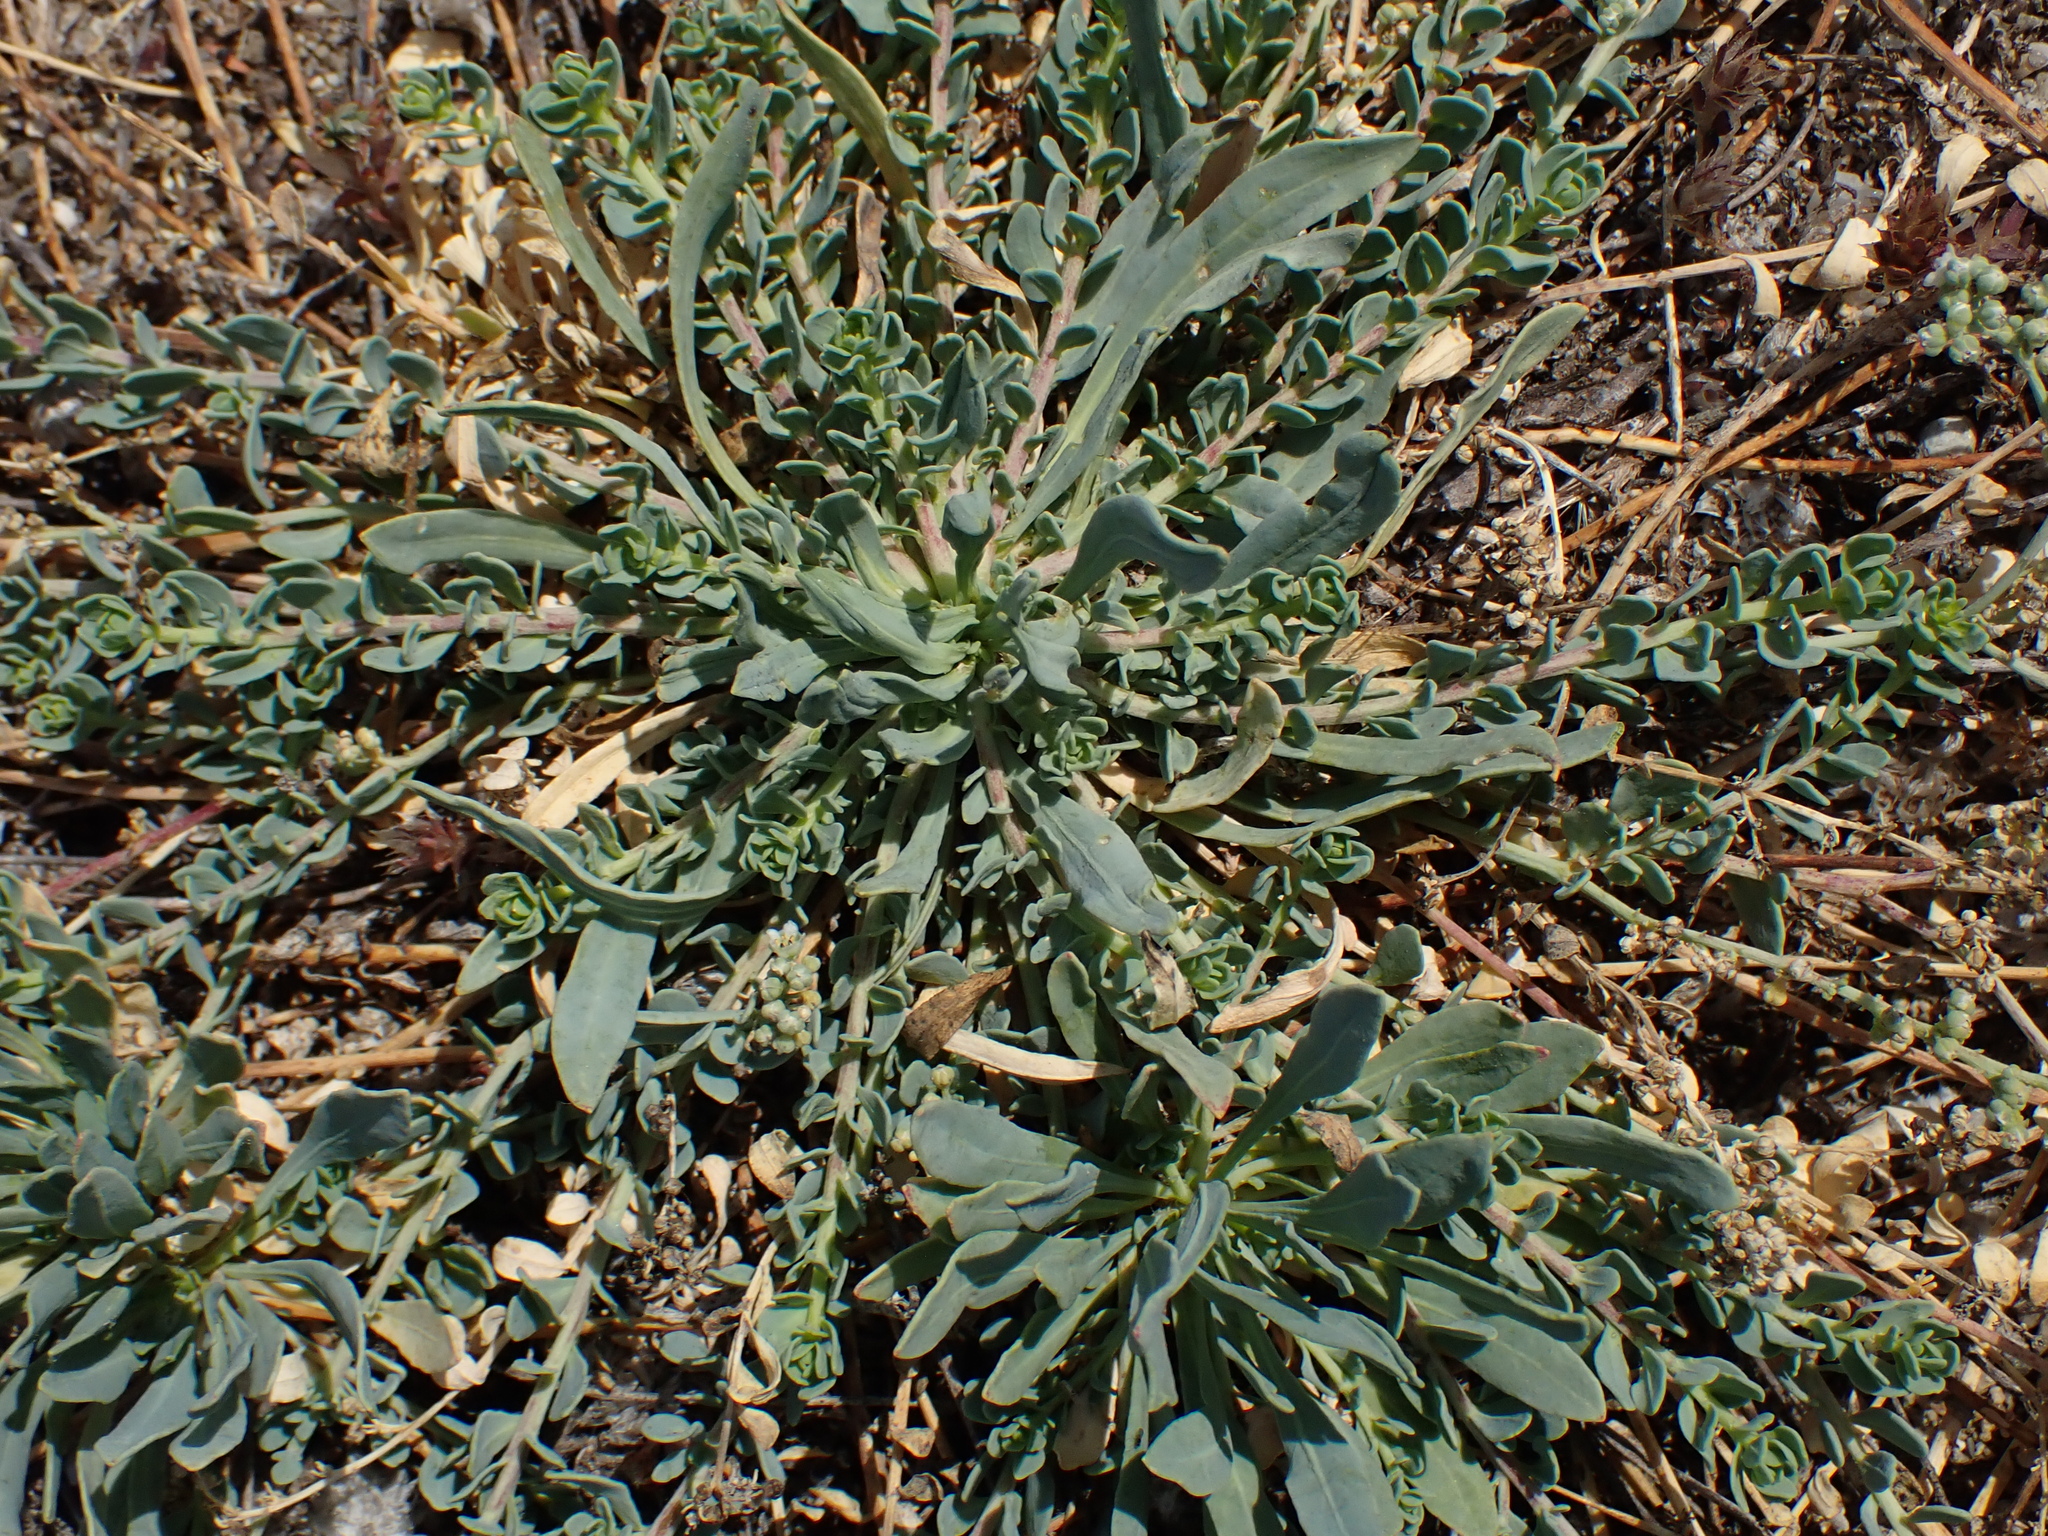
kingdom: Plantae
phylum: Tracheophyta
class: Magnoliopsida
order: Caryophyllales
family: Caryophyllaceae
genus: Corrigiola
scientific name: Corrigiola litoralis
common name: Strapwort
